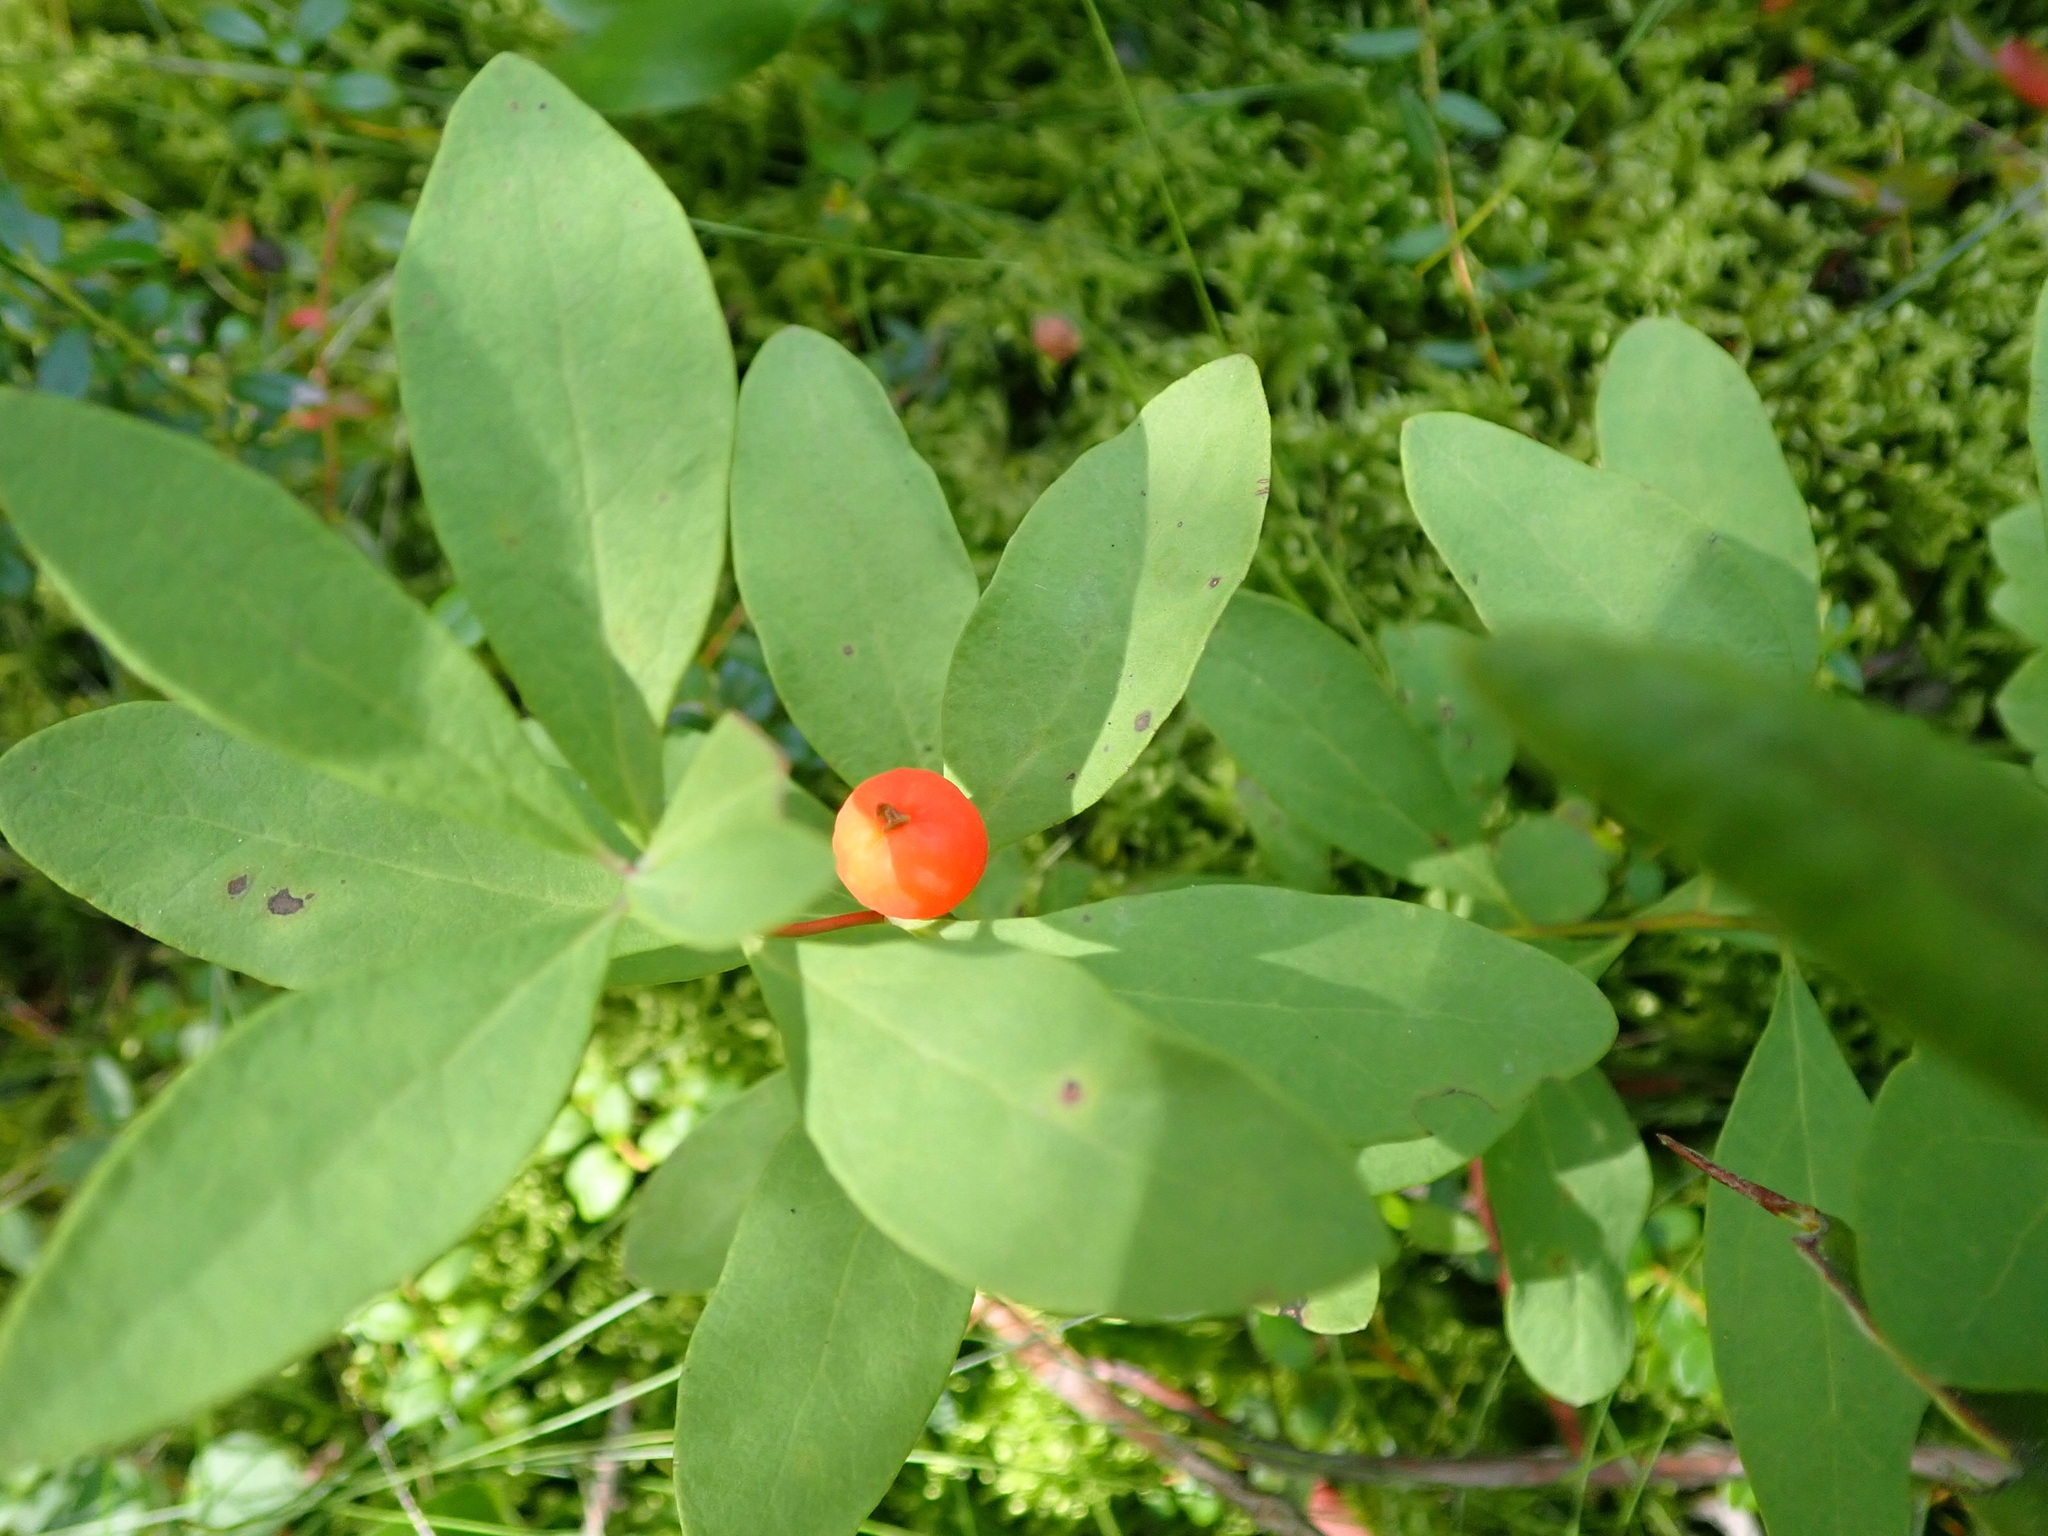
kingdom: Plantae
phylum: Tracheophyta
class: Magnoliopsida
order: Santalales
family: Comandraceae
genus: Geocaulon
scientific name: Geocaulon lividum
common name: Earthberry
